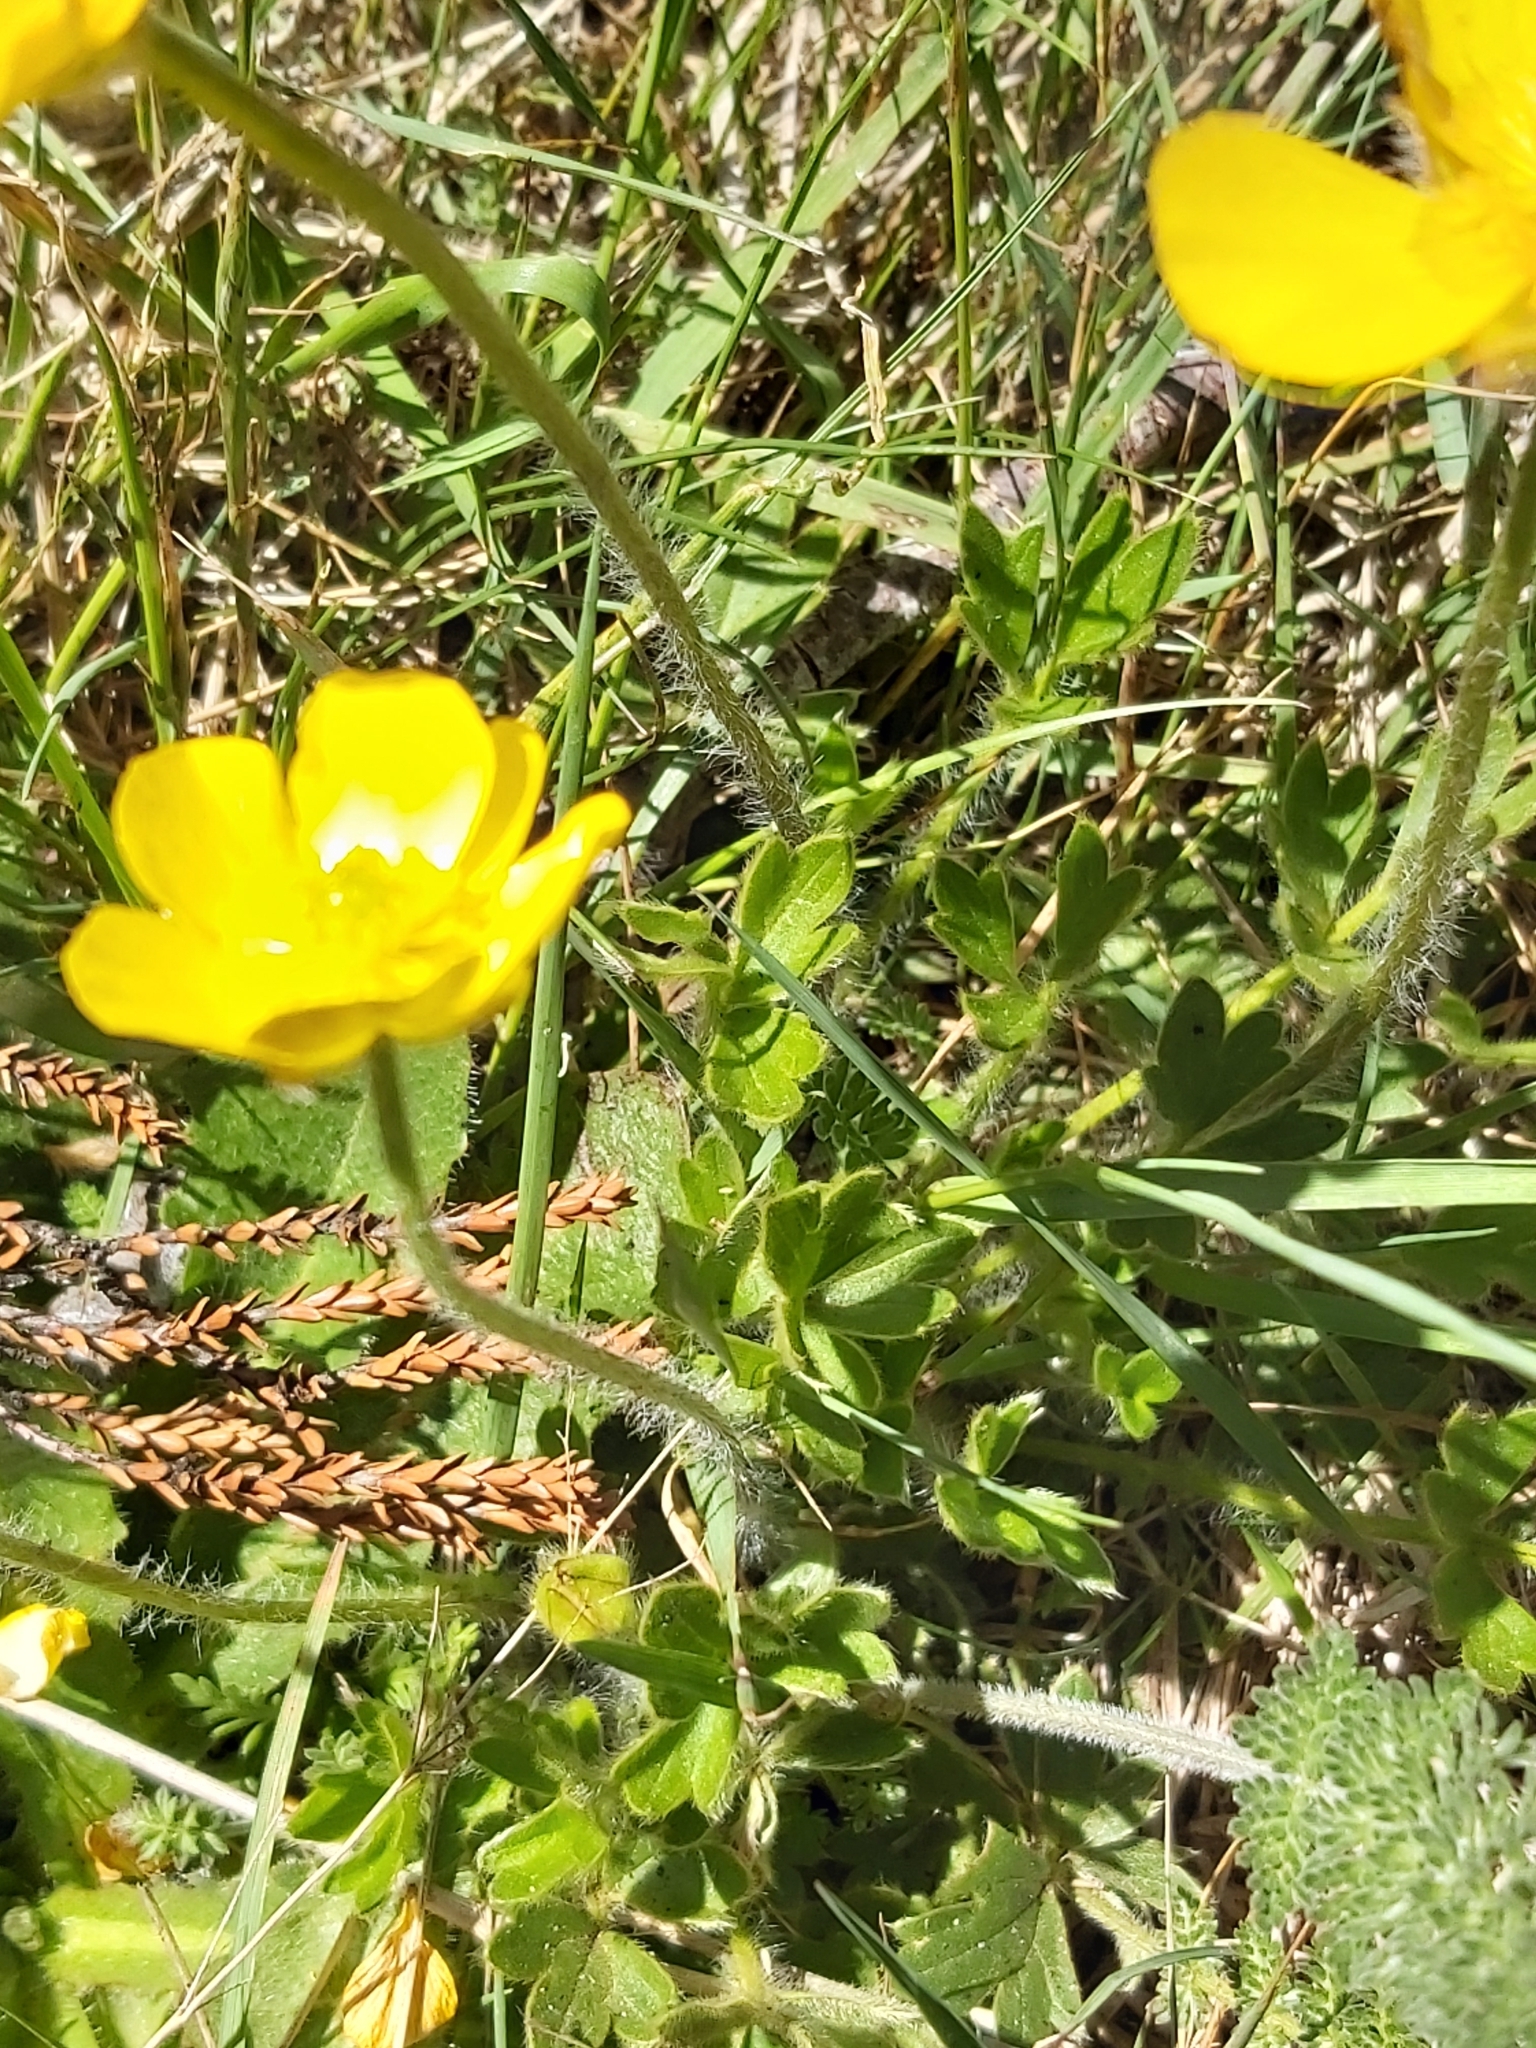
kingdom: Plantae
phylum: Tracheophyta
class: Magnoliopsida
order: Ranunculales
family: Ranunculaceae
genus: Ranunculus
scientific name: Ranunculus graniticola
